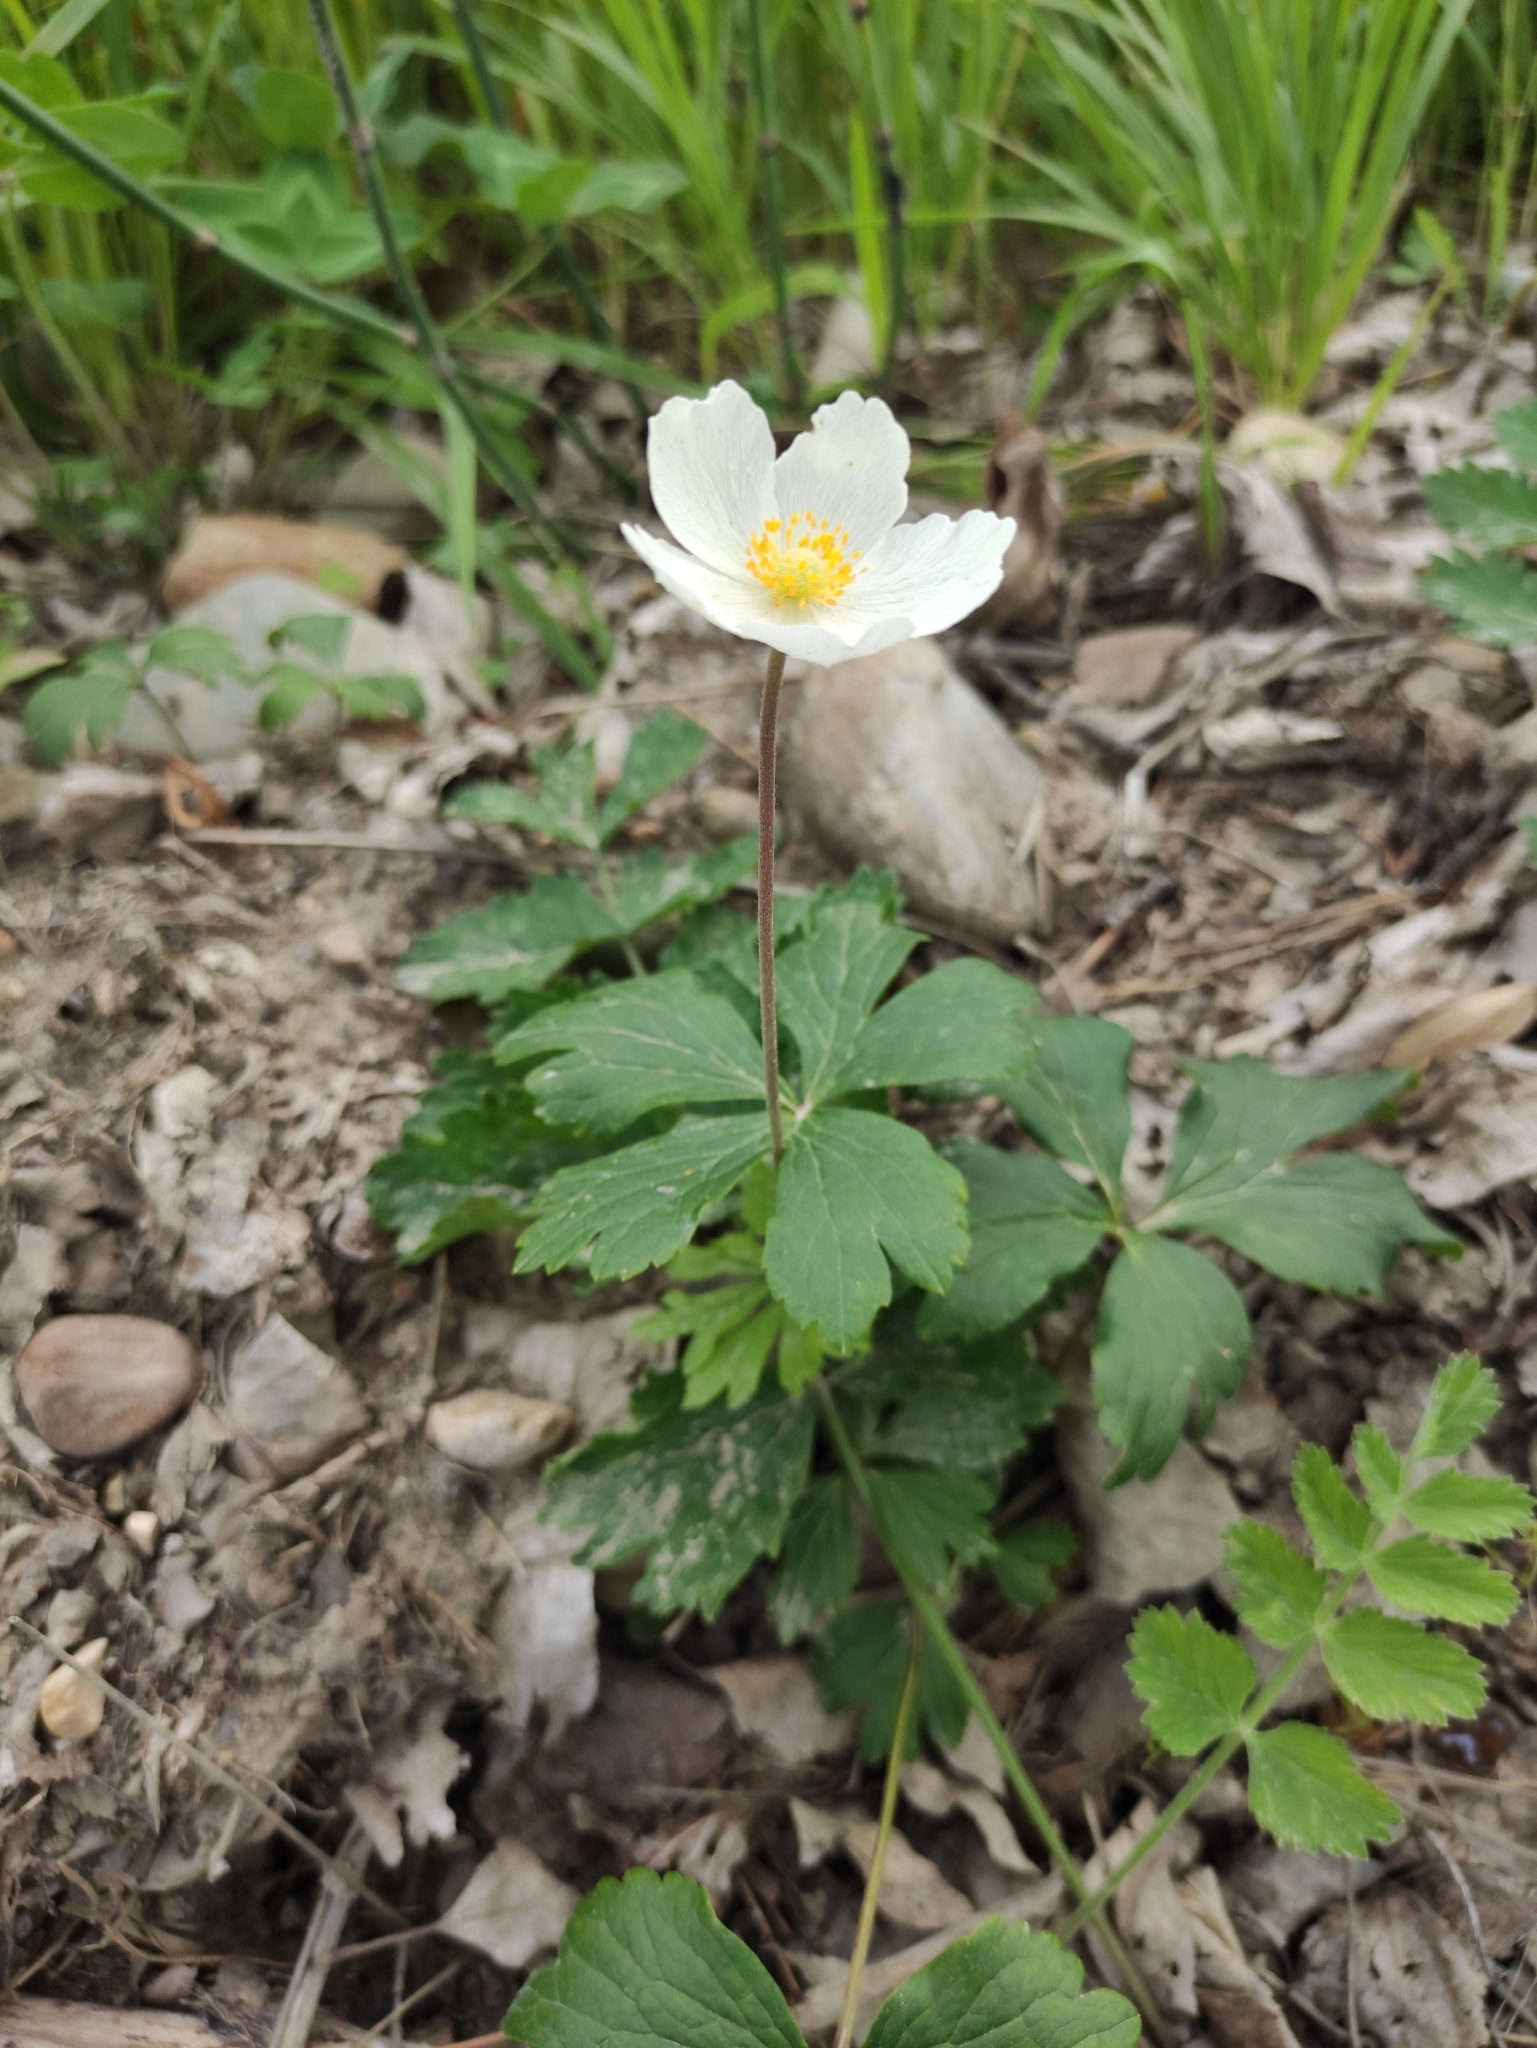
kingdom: Plantae
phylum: Tracheophyta
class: Magnoliopsida
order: Ranunculales
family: Ranunculaceae
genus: Anemone
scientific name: Anemone sylvestris
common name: Snowdrop anemone
